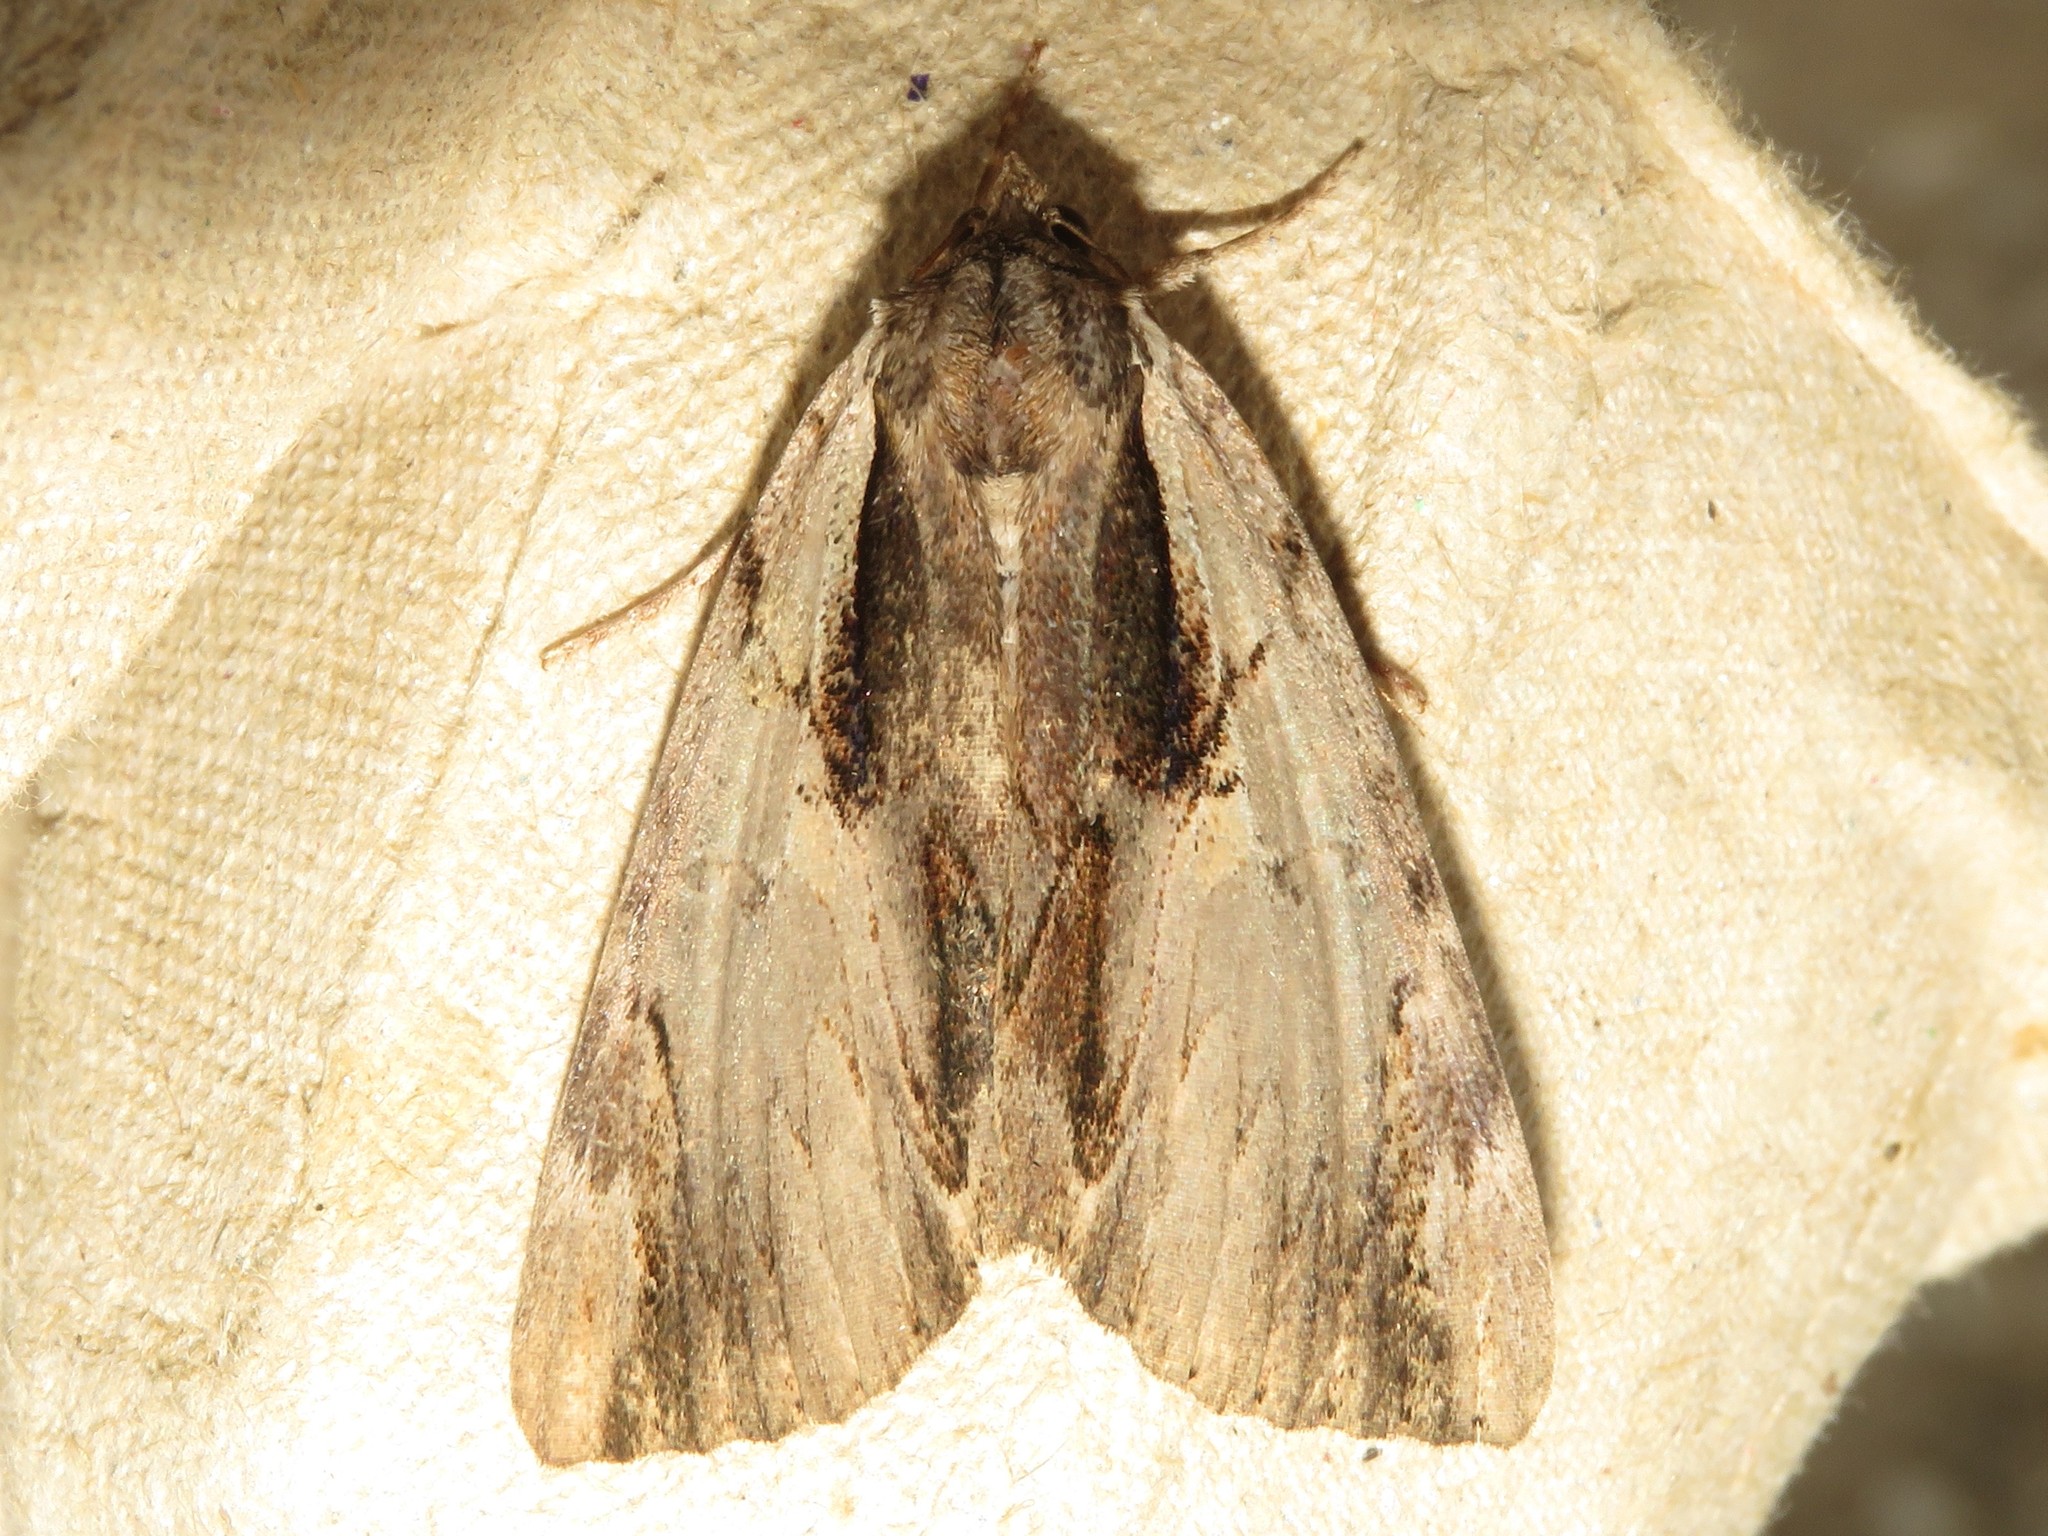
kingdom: Animalia
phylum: Arthropoda
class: Insecta
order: Lepidoptera
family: Erebidae
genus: Catocala
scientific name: Catocala ultronia
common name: Ultronia underwing
